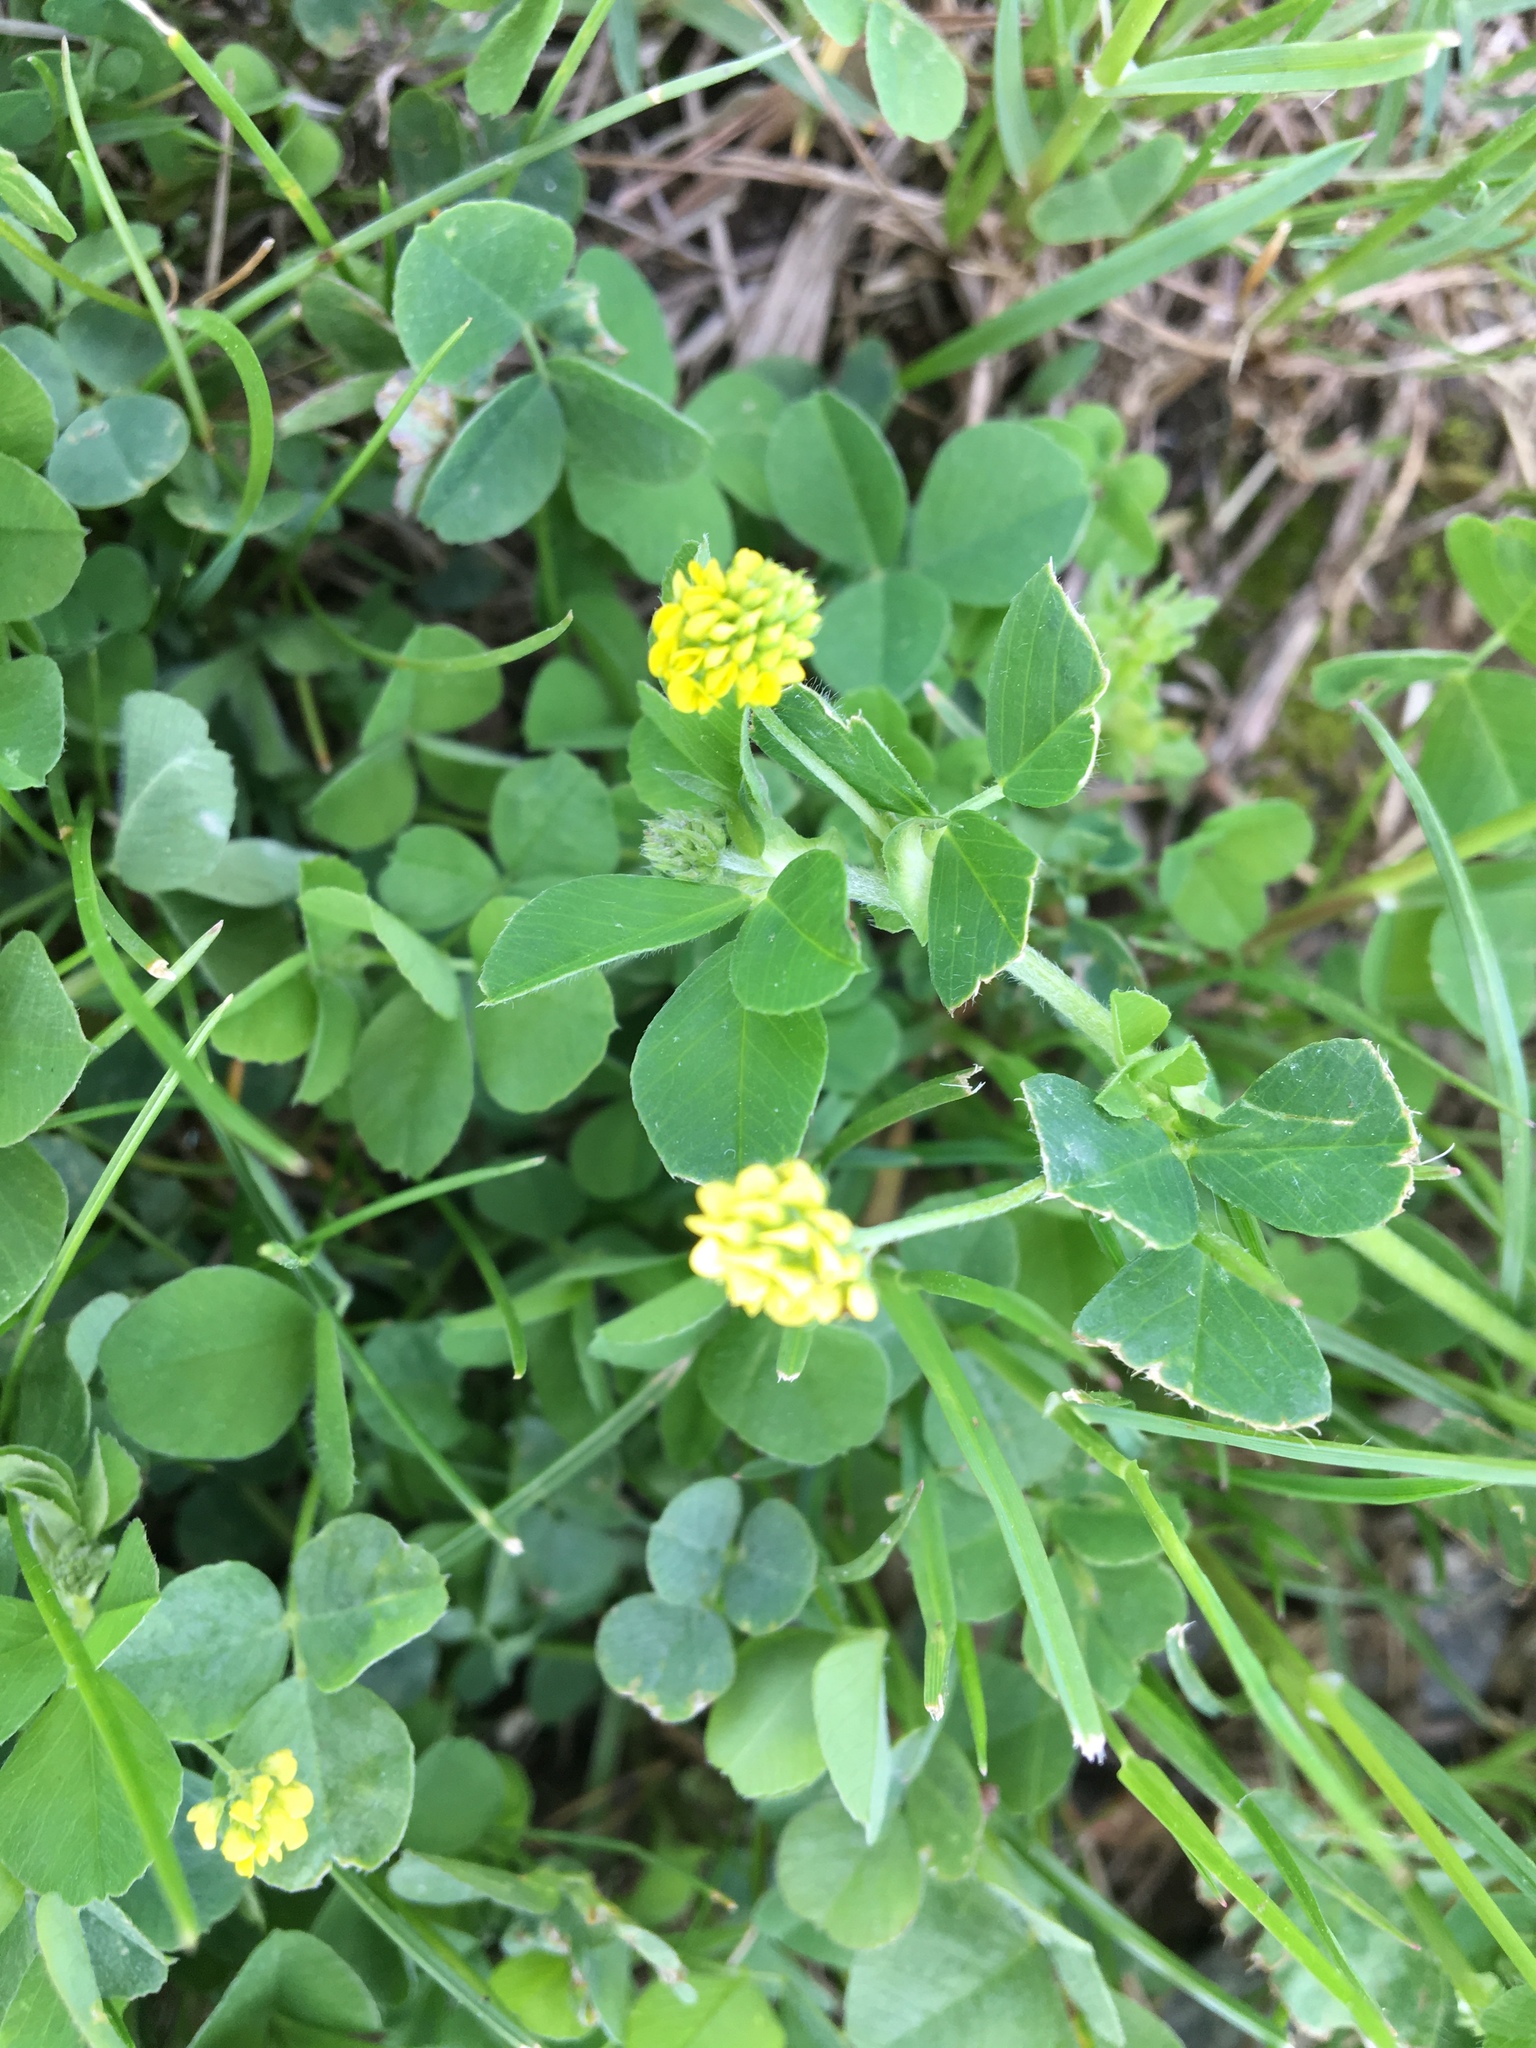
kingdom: Plantae
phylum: Tracheophyta
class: Magnoliopsida
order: Fabales
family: Fabaceae
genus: Medicago
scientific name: Medicago lupulina
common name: Black medick
